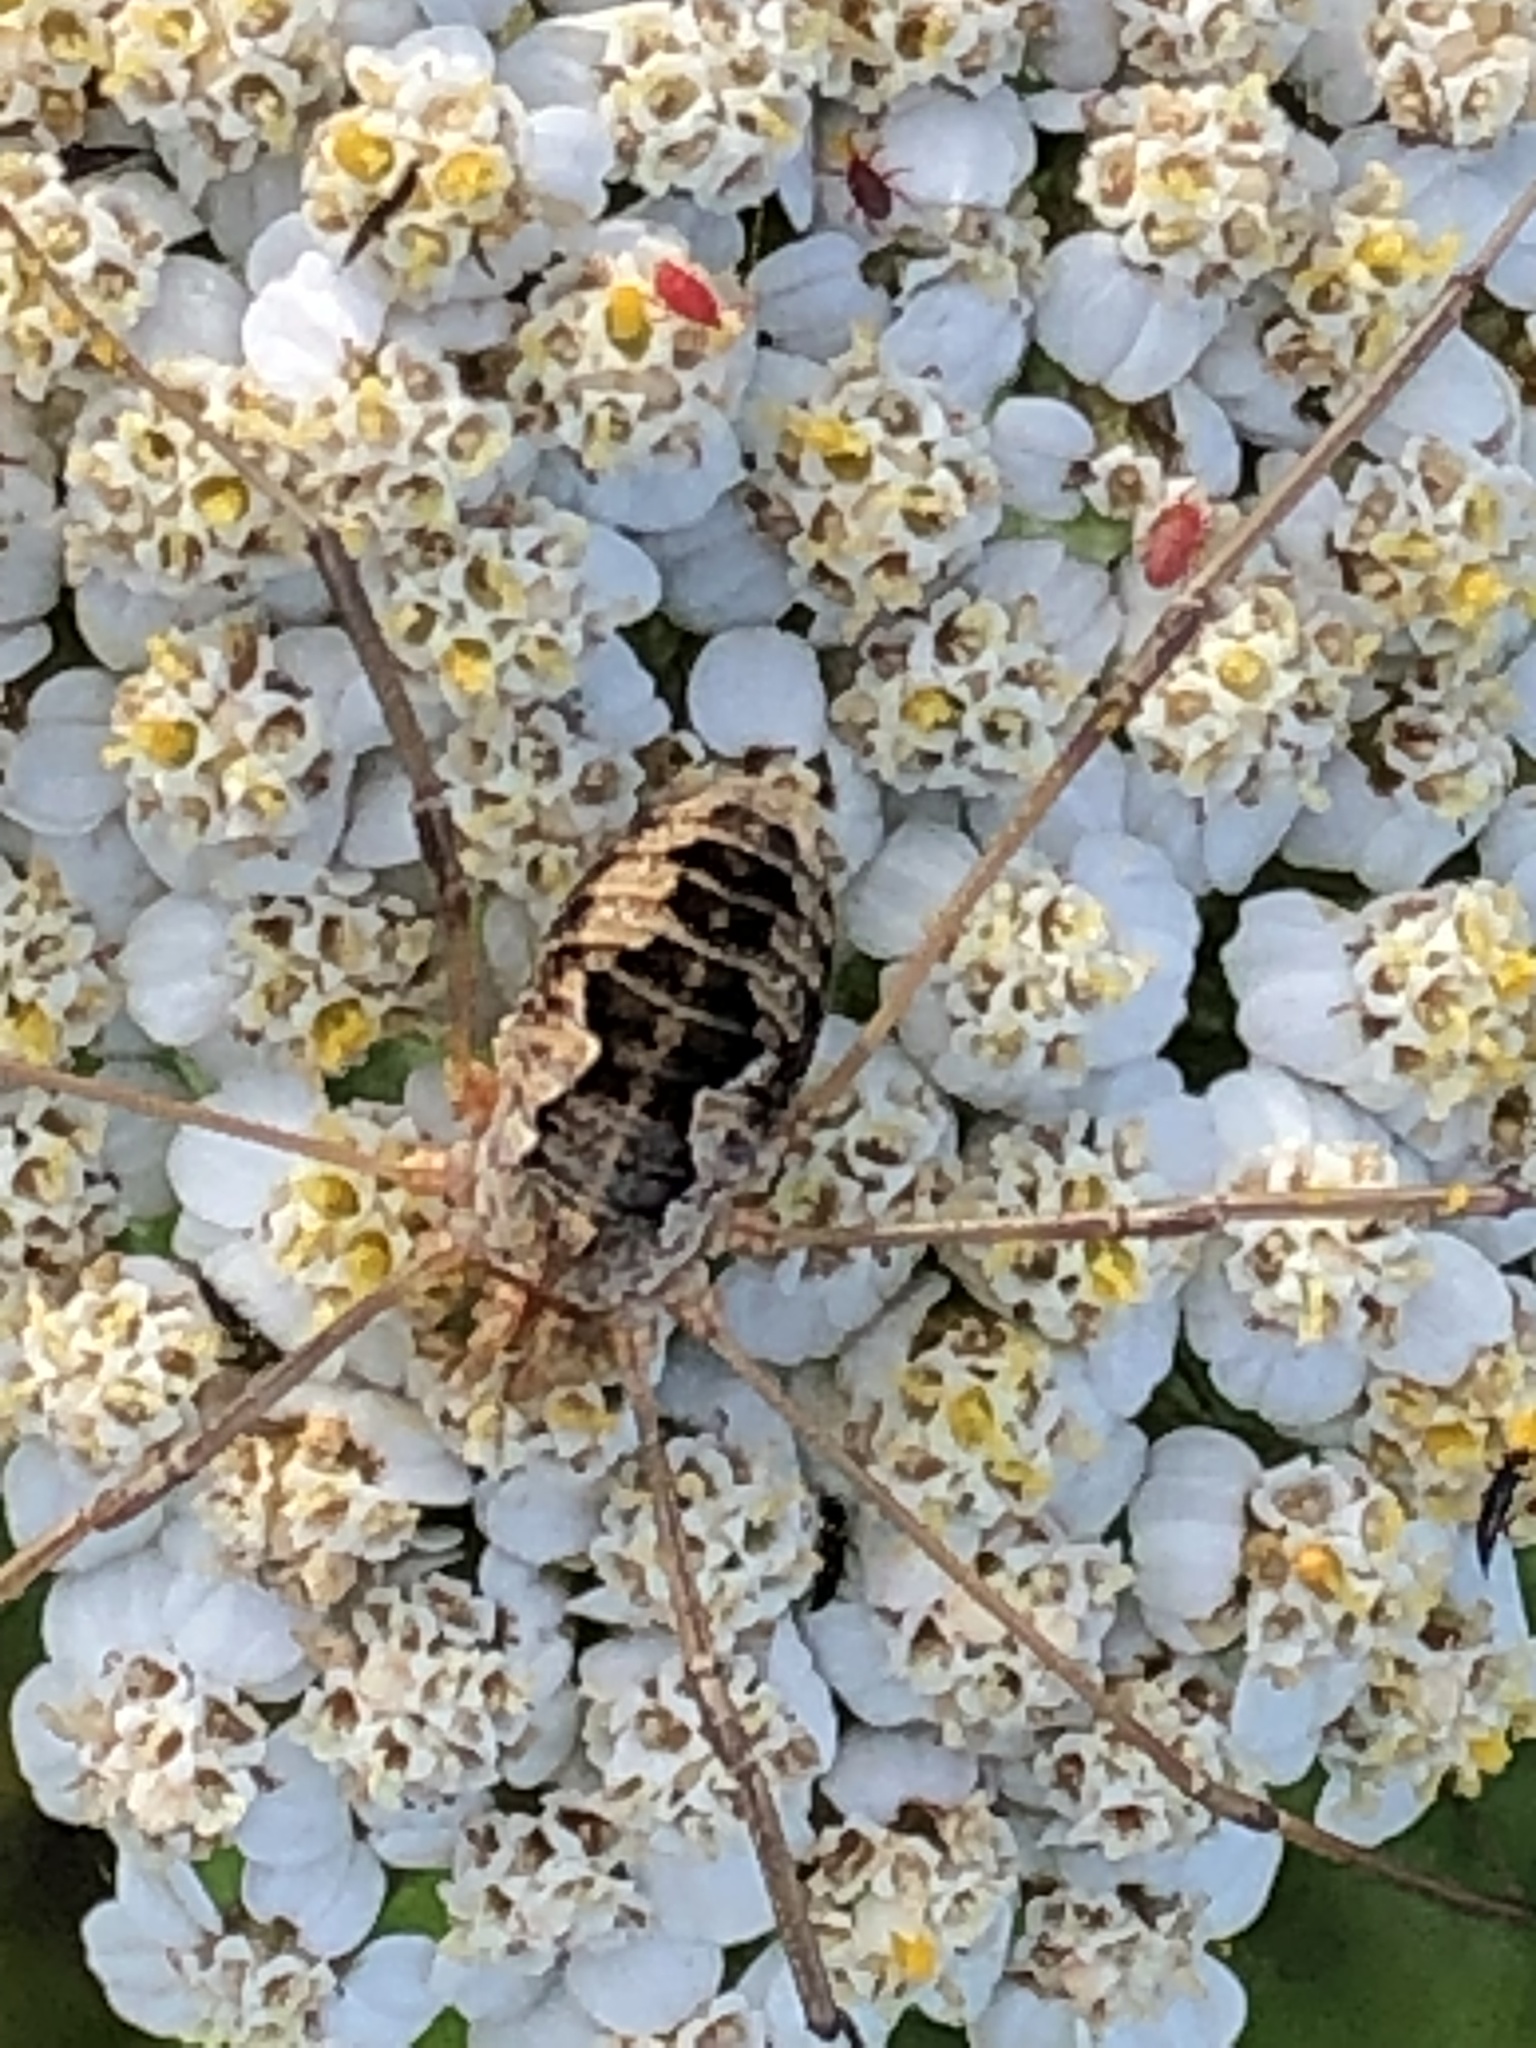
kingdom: Animalia
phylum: Arthropoda
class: Arachnida
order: Opiliones
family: Phalangiidae
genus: Phalangium
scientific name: Phalangium opilio
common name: Daddy longleg
